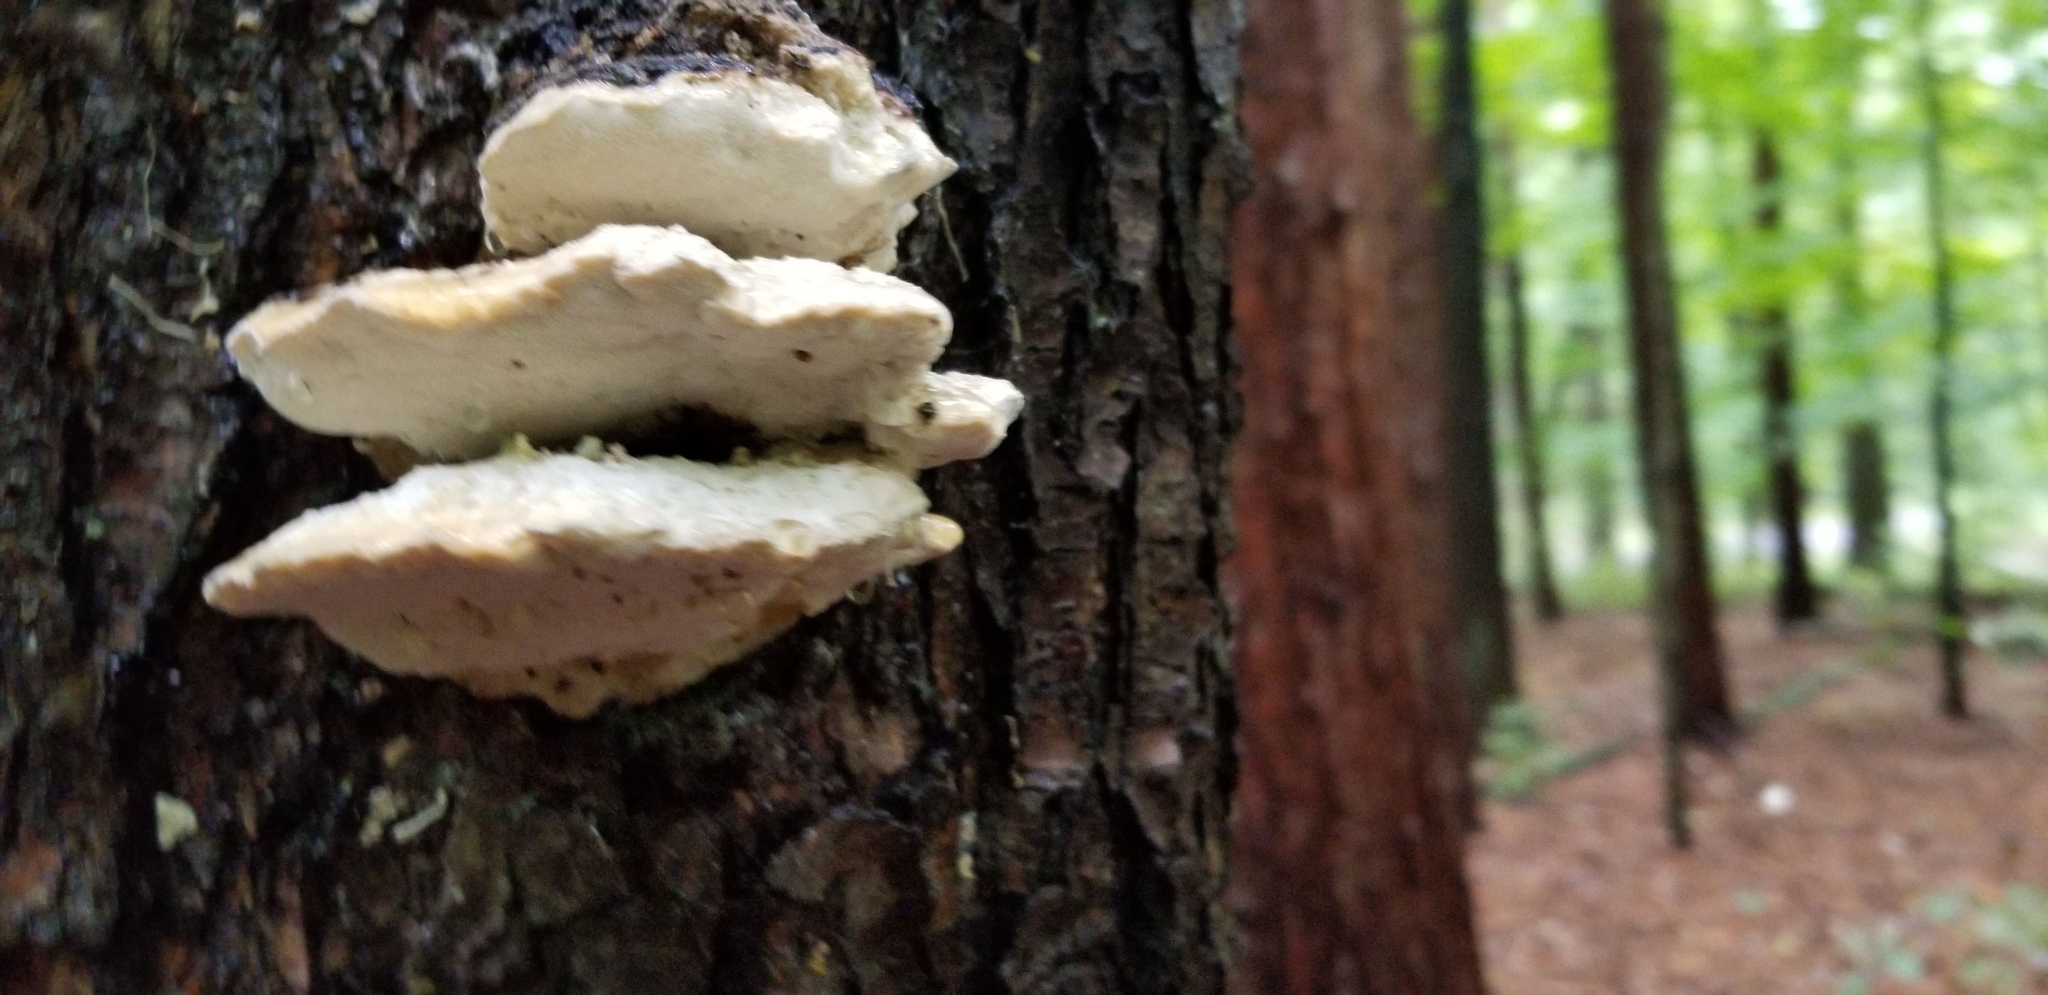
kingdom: Fungi
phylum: Basidiomycota
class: Agaricomycetes
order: Polyporales
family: Incrustoporiaceae
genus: Tyromyces
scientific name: Tyromyces chioneus
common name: White cheese polypore
